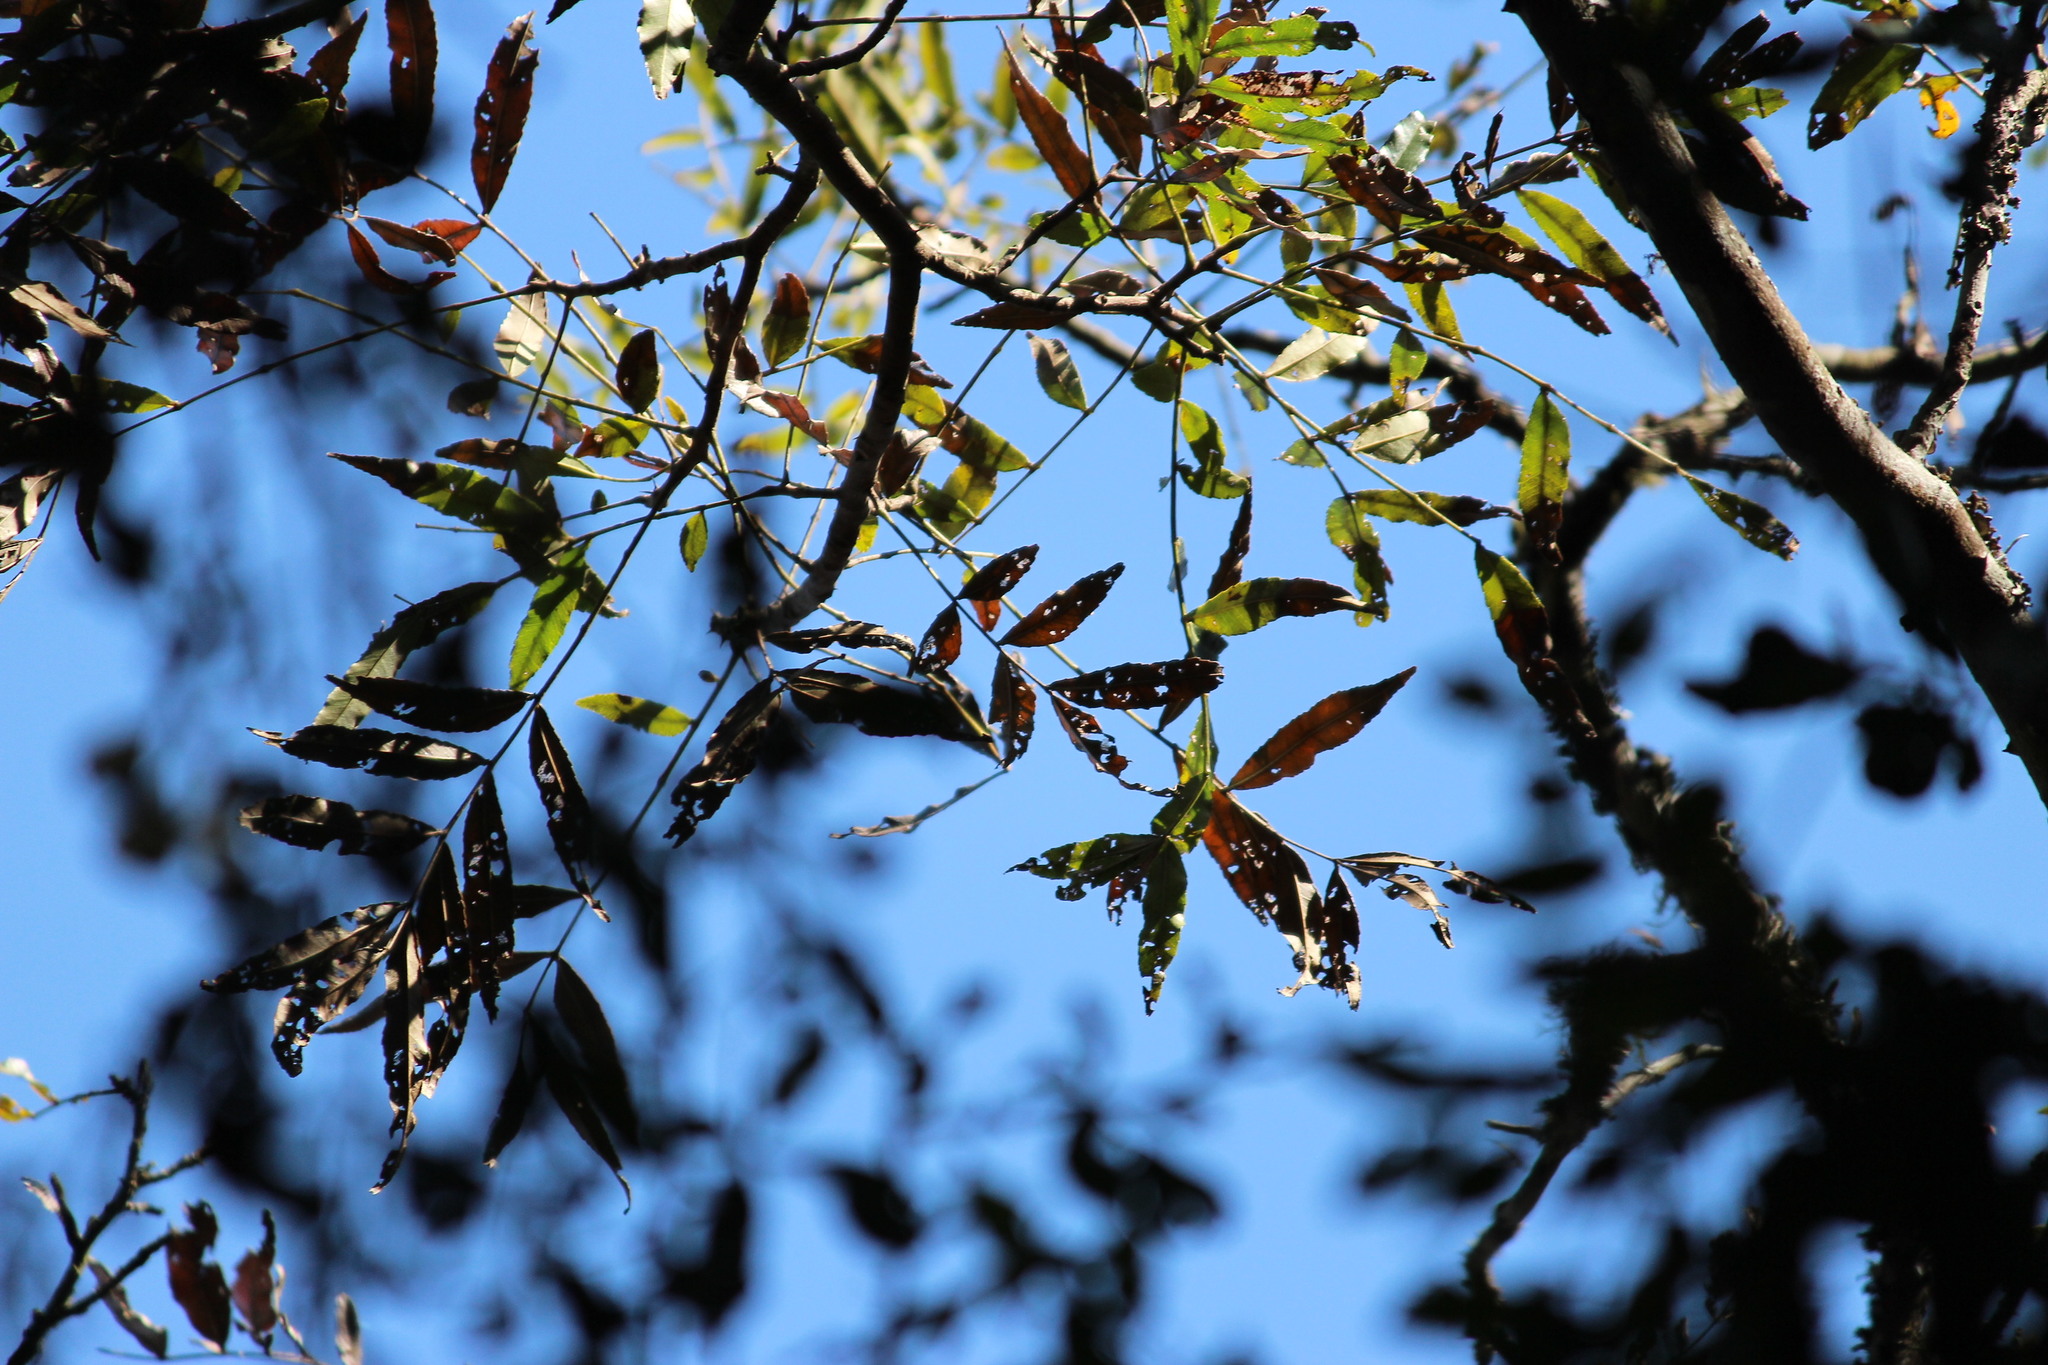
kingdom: Plantae
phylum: Tracheophyta
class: Magnoliopsida
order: Sapindales
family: Rutaceae
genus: Zanthoxylum
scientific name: Zanthoxylum davyi
